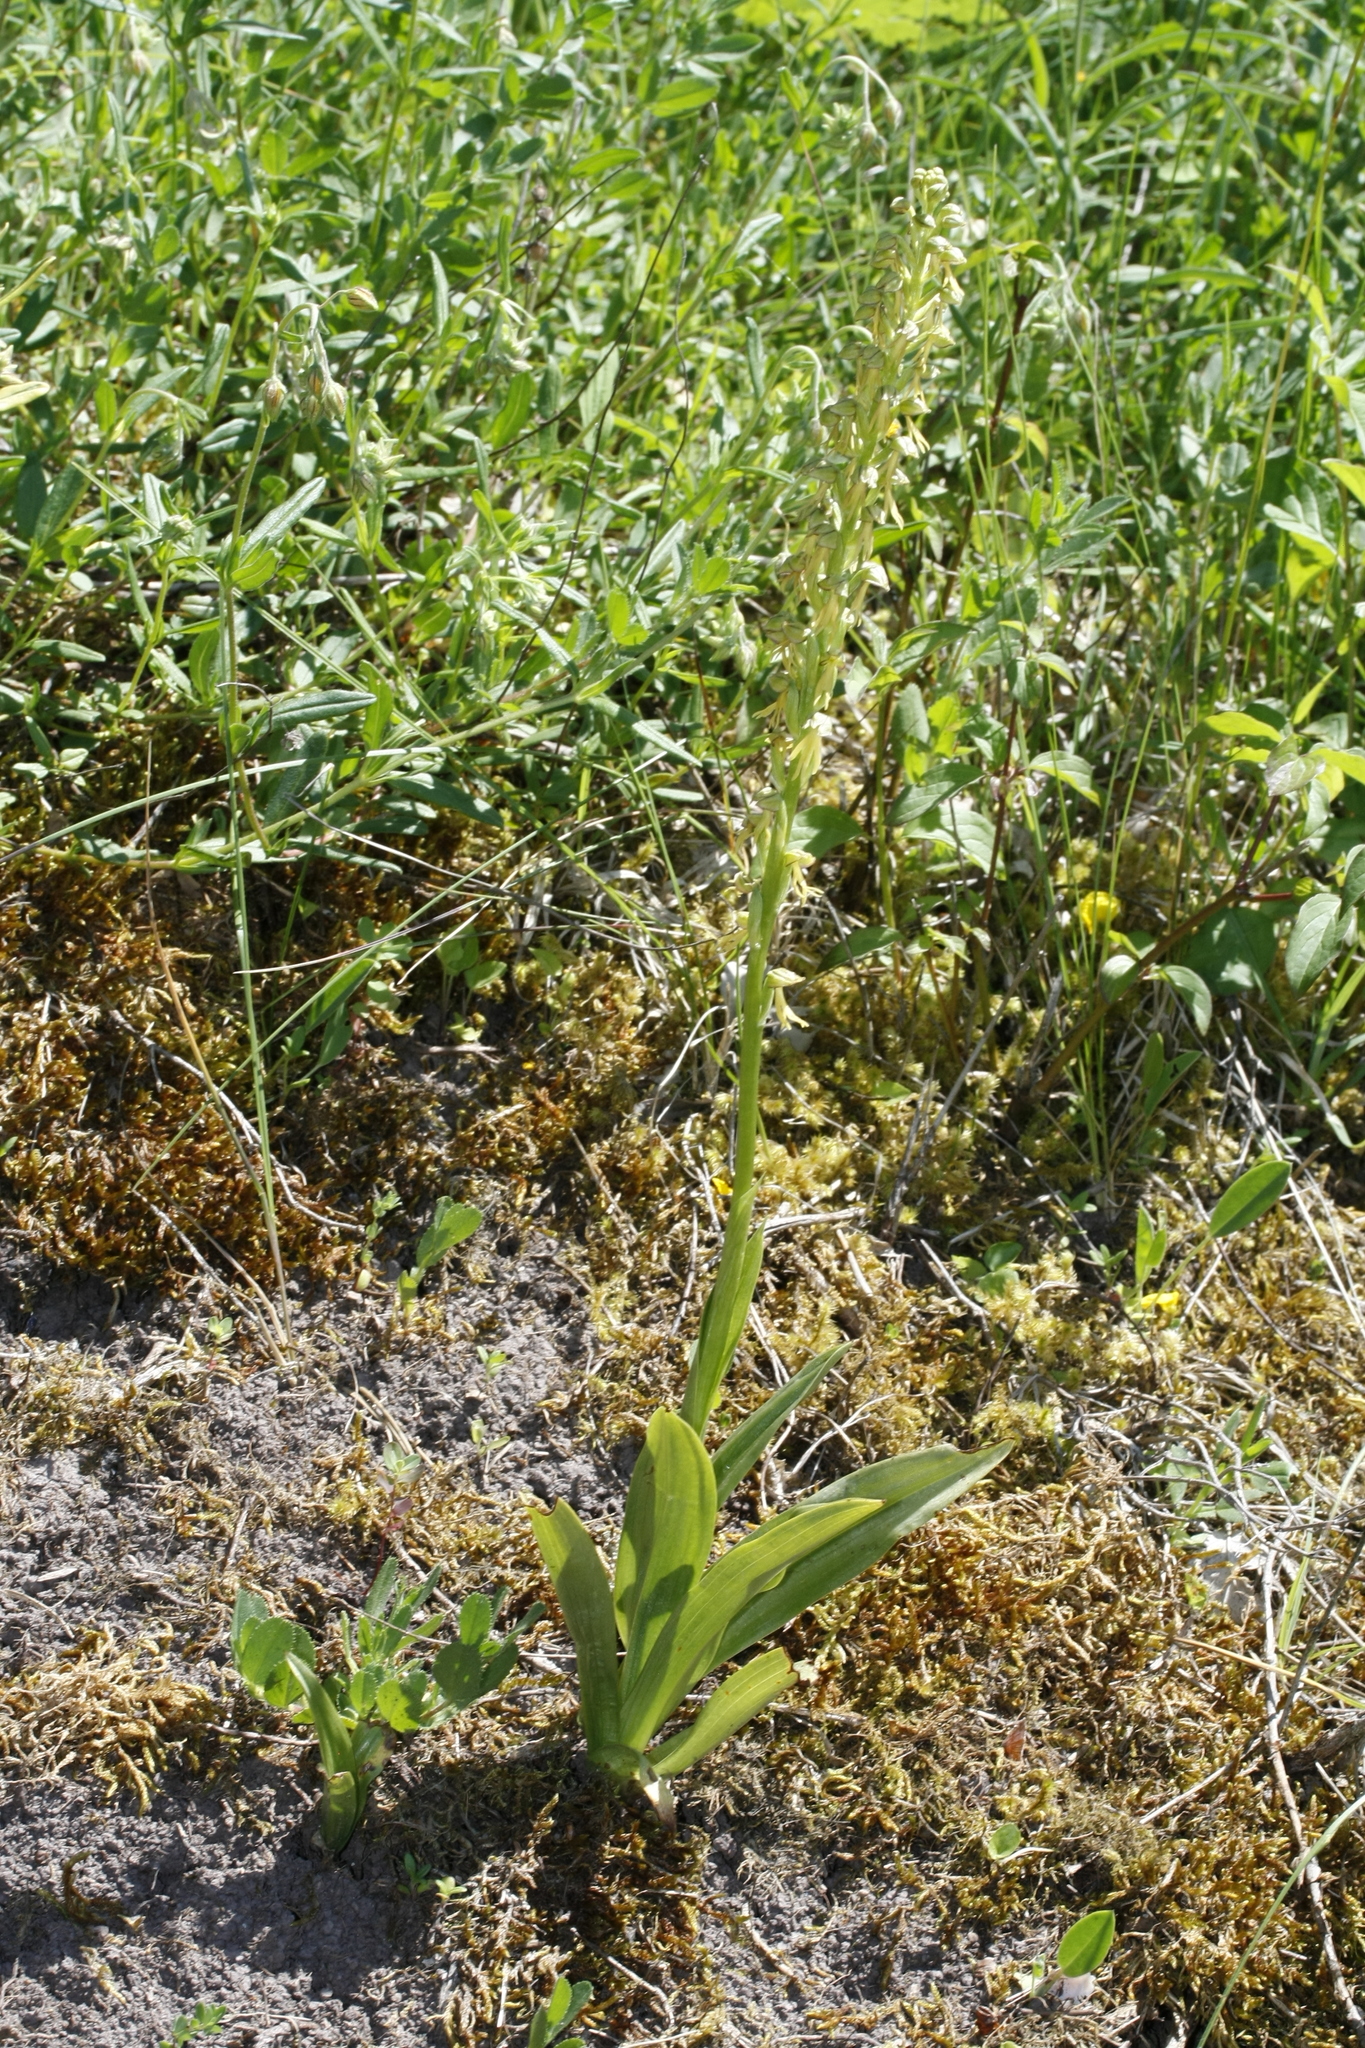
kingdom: Plantae
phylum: Tracheophyta
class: Liliopsida
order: Asparagales
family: Orchidaceae
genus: Orchis
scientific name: Orchis anthropophora
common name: Man orchid
